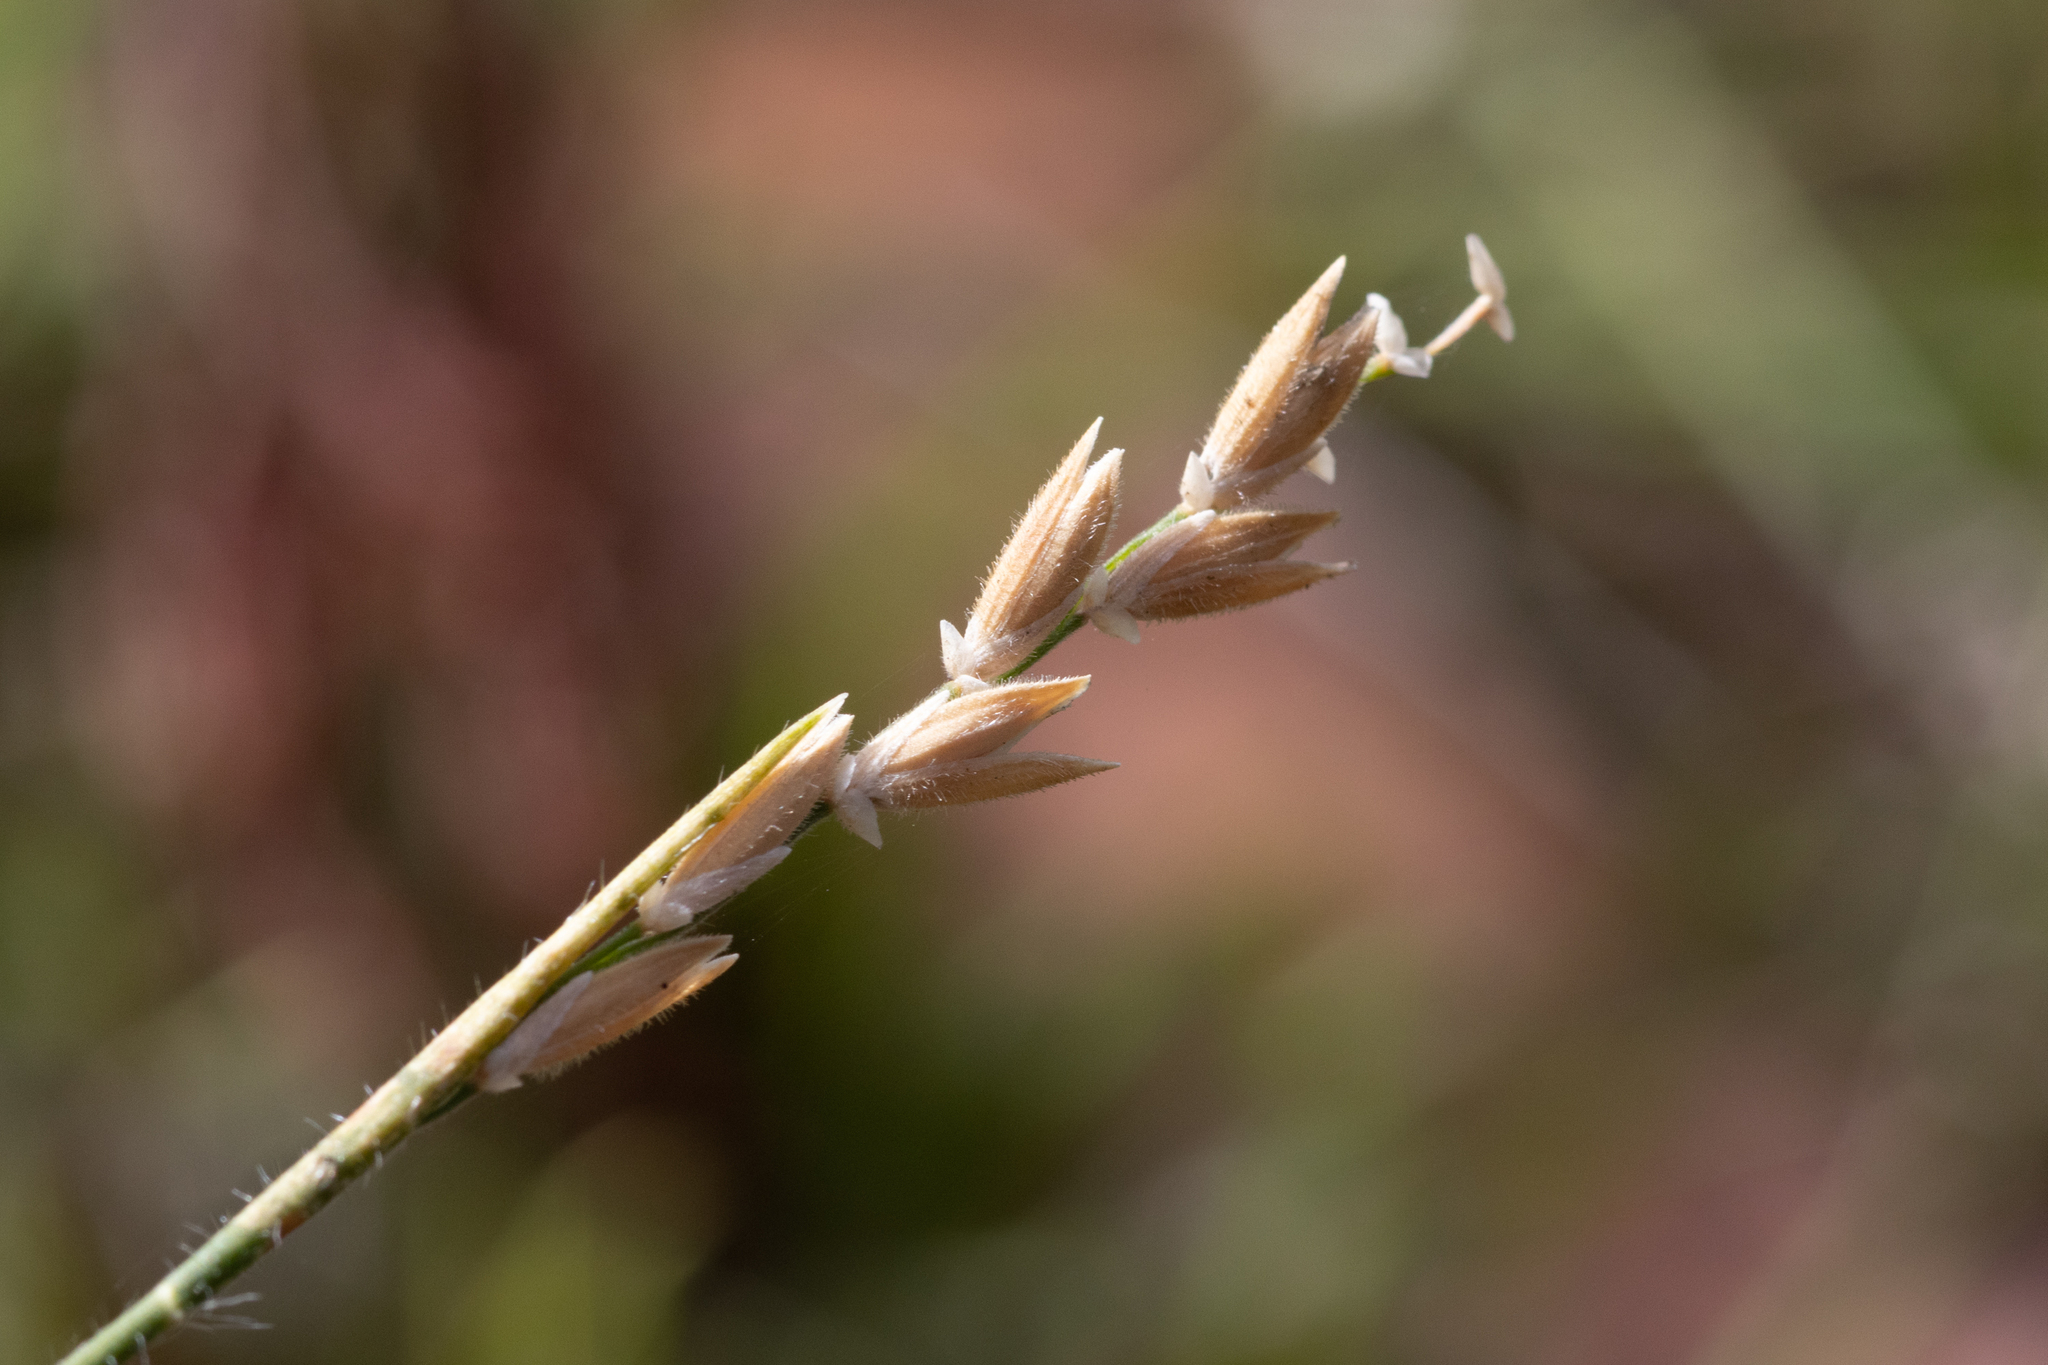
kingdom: Plantae
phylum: Tracheophyta
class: Liliopsida
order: Poales
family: Poaceae
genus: Tetrarrhena
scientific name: Tetrarrhena distichophylla
